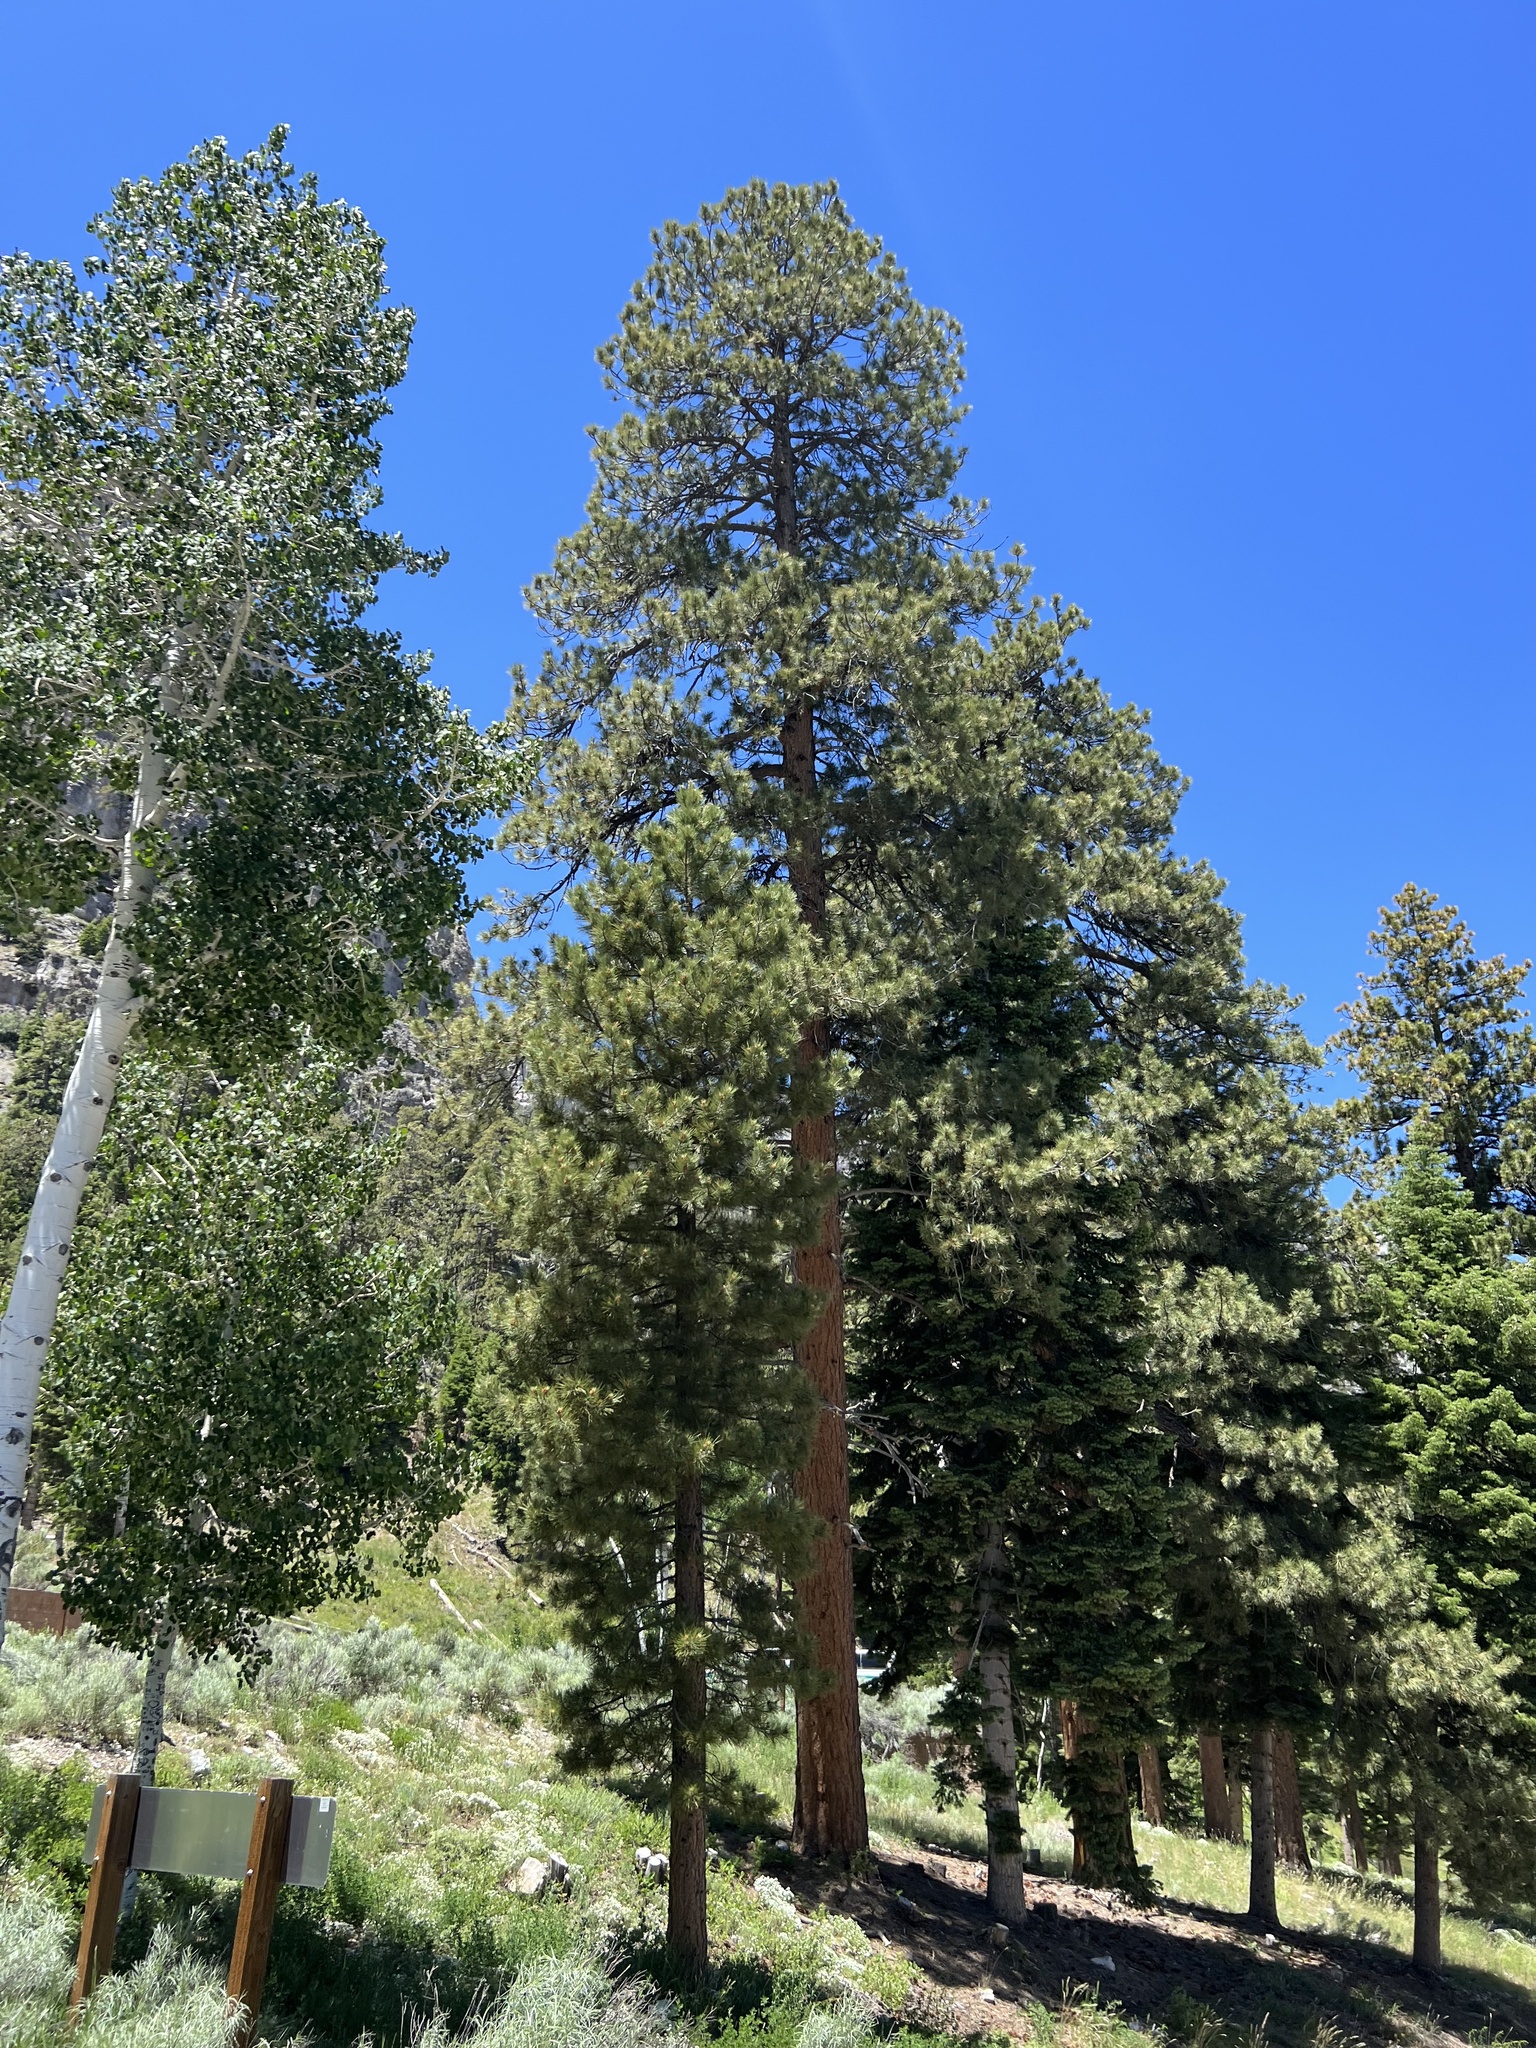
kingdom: Plantae
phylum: Tracheophyta
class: Pinopsida
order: Pinales
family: Pinaceae
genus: Pinus
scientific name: Pinus ponderosa
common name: Western yellow-pine
